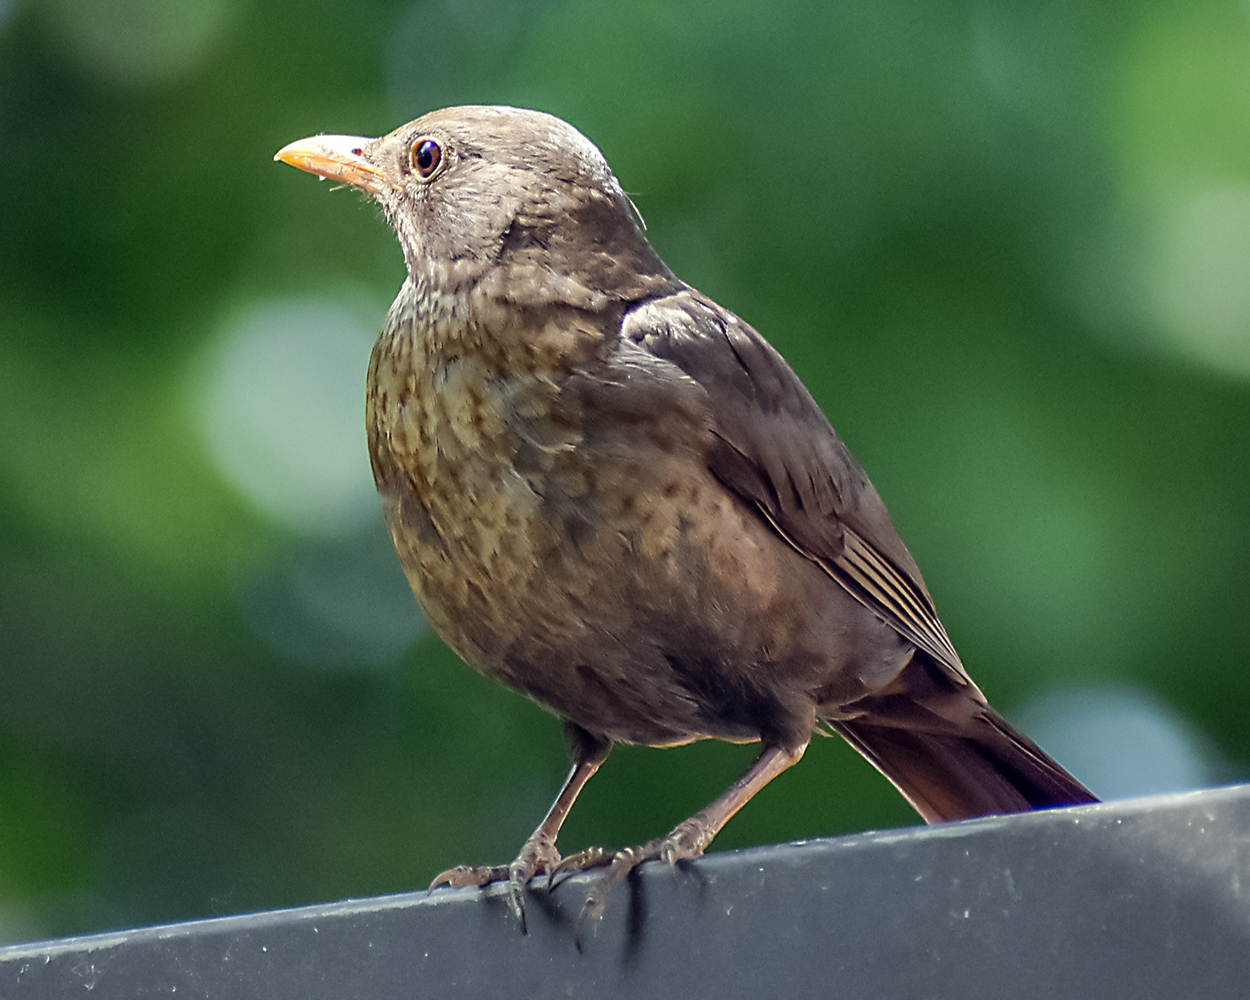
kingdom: Animalia
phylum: Chordata
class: Aves
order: Passeriformes
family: Turdidae
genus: Turdus
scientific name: Turdus merula
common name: Common blackbird
